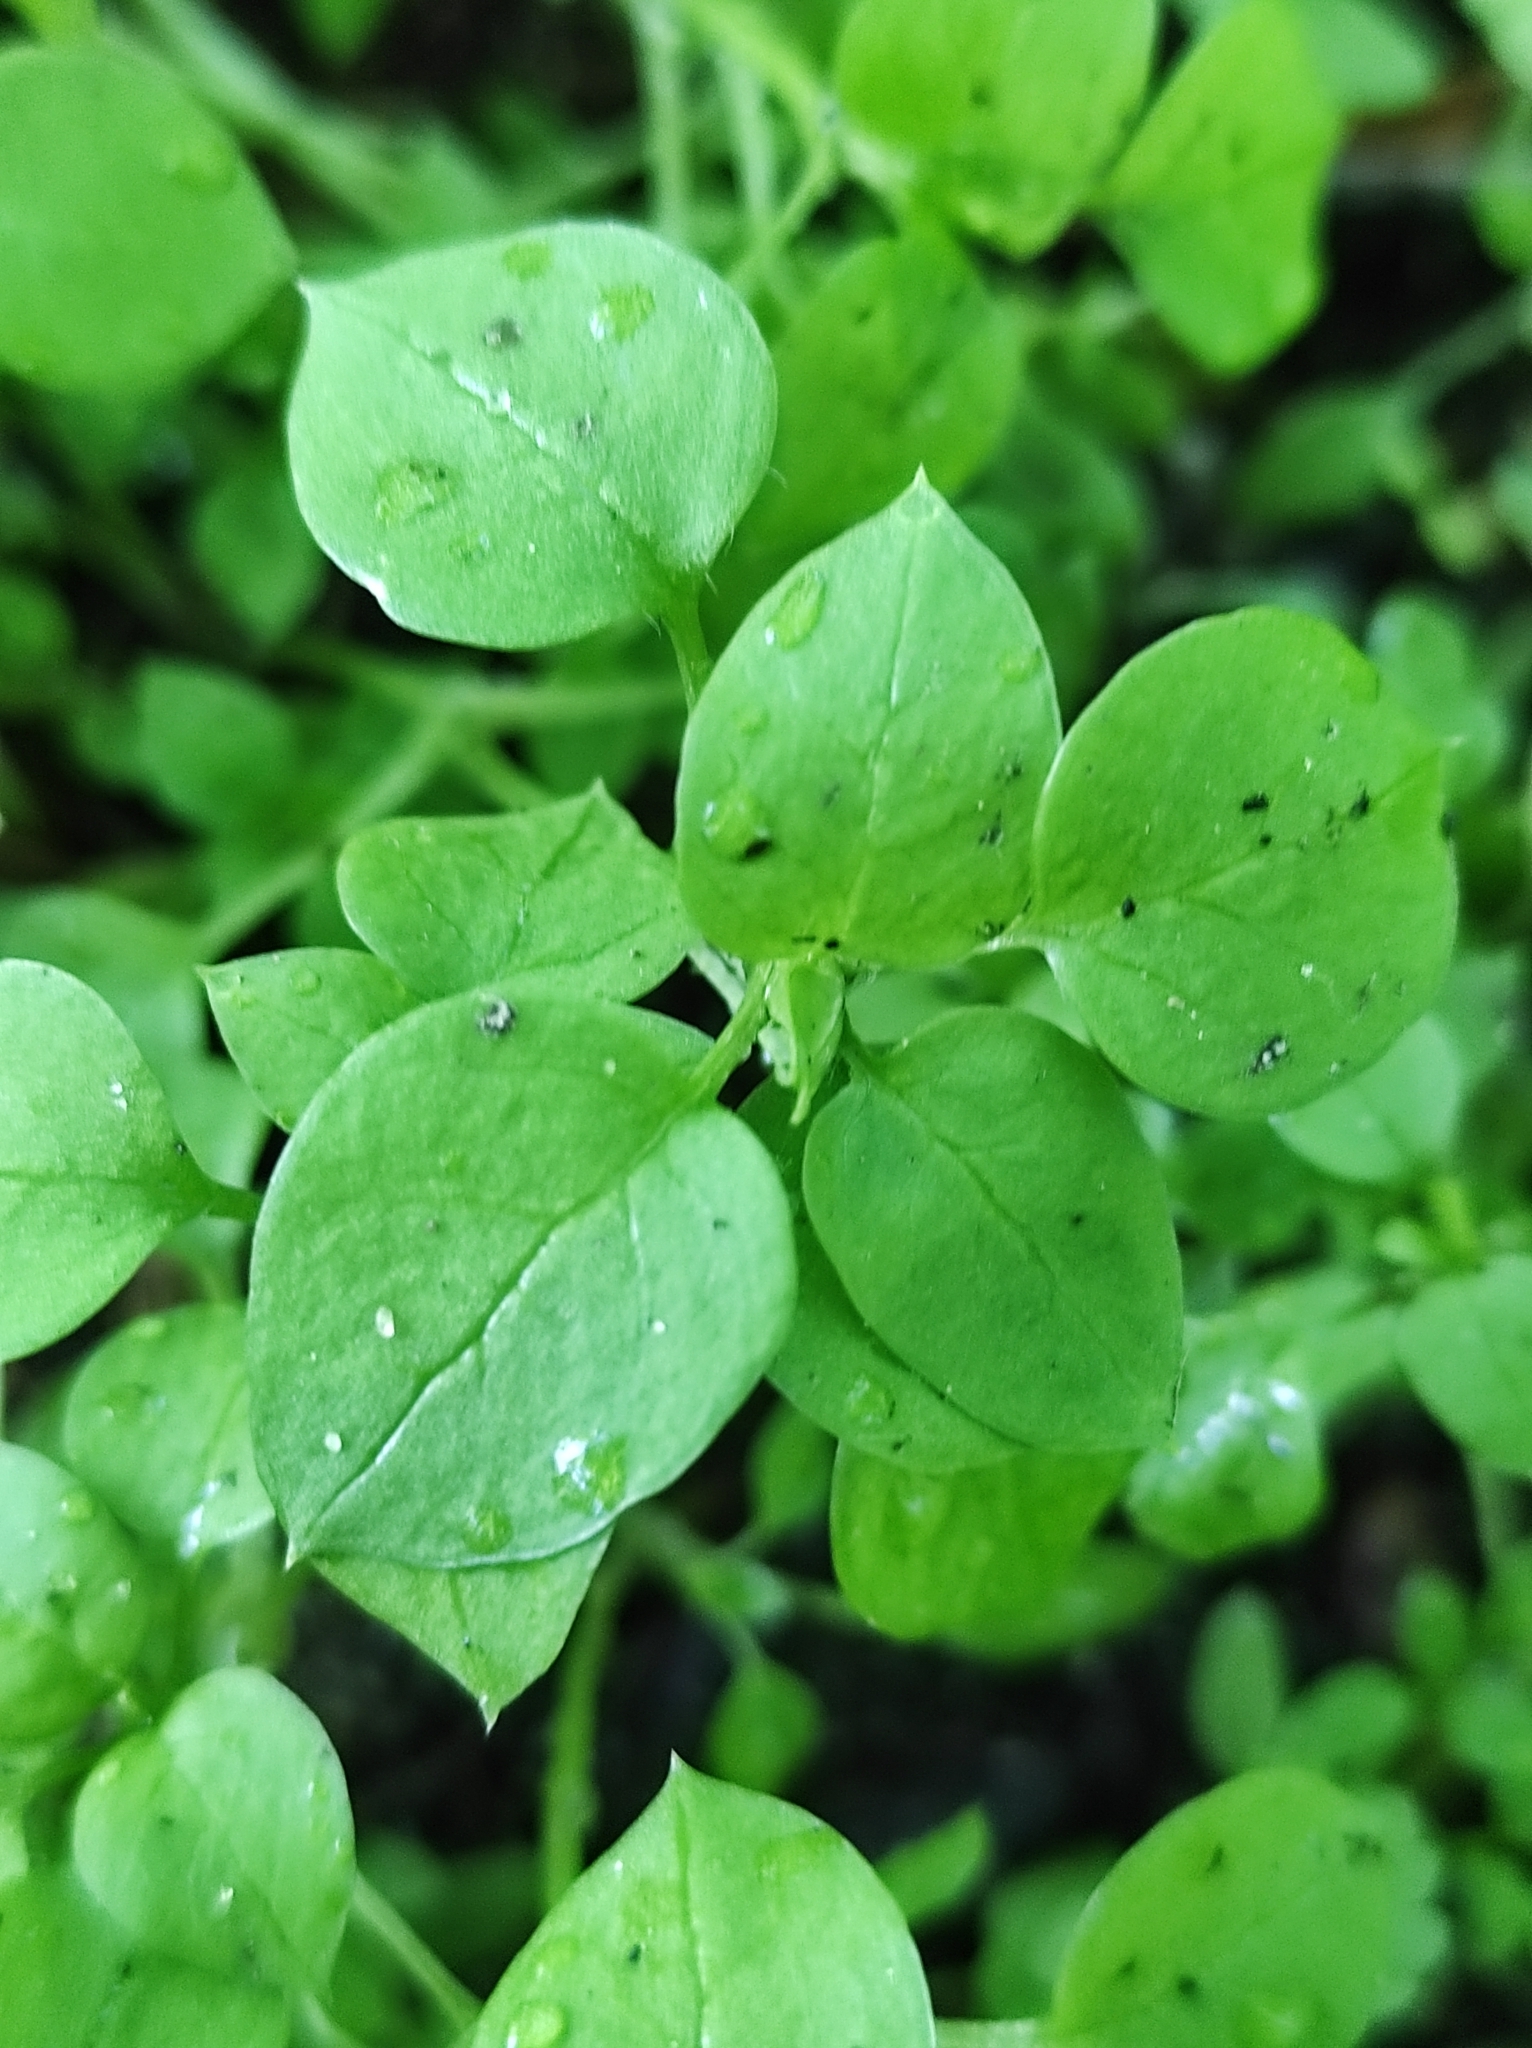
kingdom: Plantae
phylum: Tracheophyta
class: Magnoliopsida
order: Caryophyllales
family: Caryophyllaceae
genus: Stellaria
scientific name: Stellaria media
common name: Common chickweed
